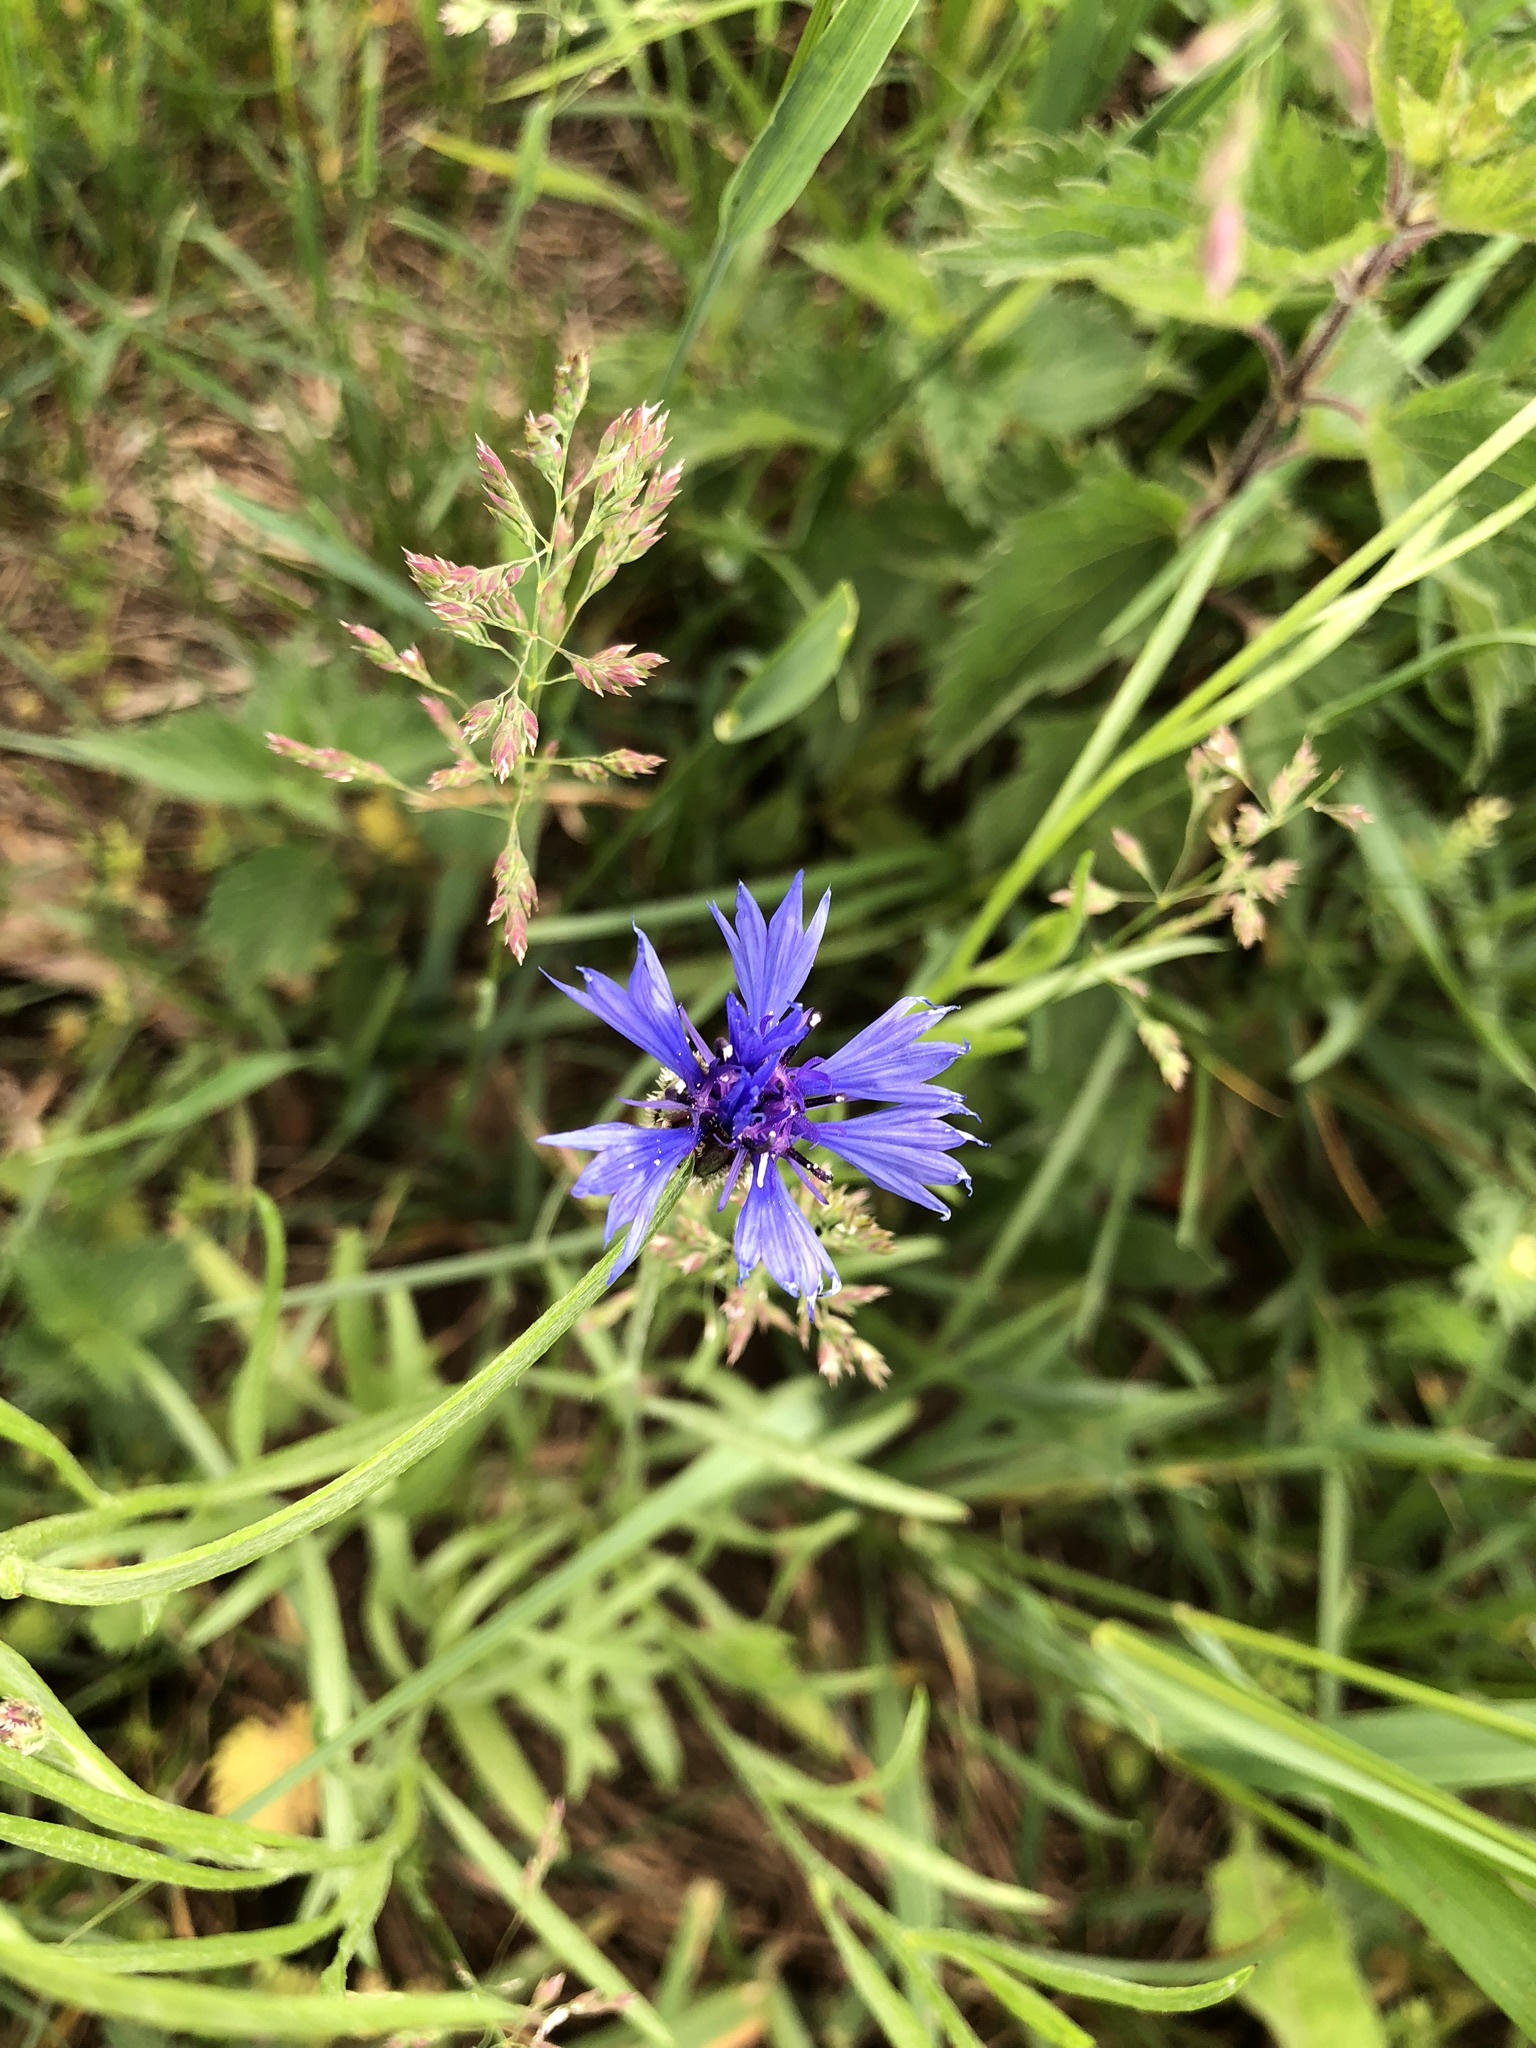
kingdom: Plantae
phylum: Tracheophyta
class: Magnoliopsida
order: Asterales
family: Asteraceae
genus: Centaurea
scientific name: Centaurea cyanus
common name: Cornflower
